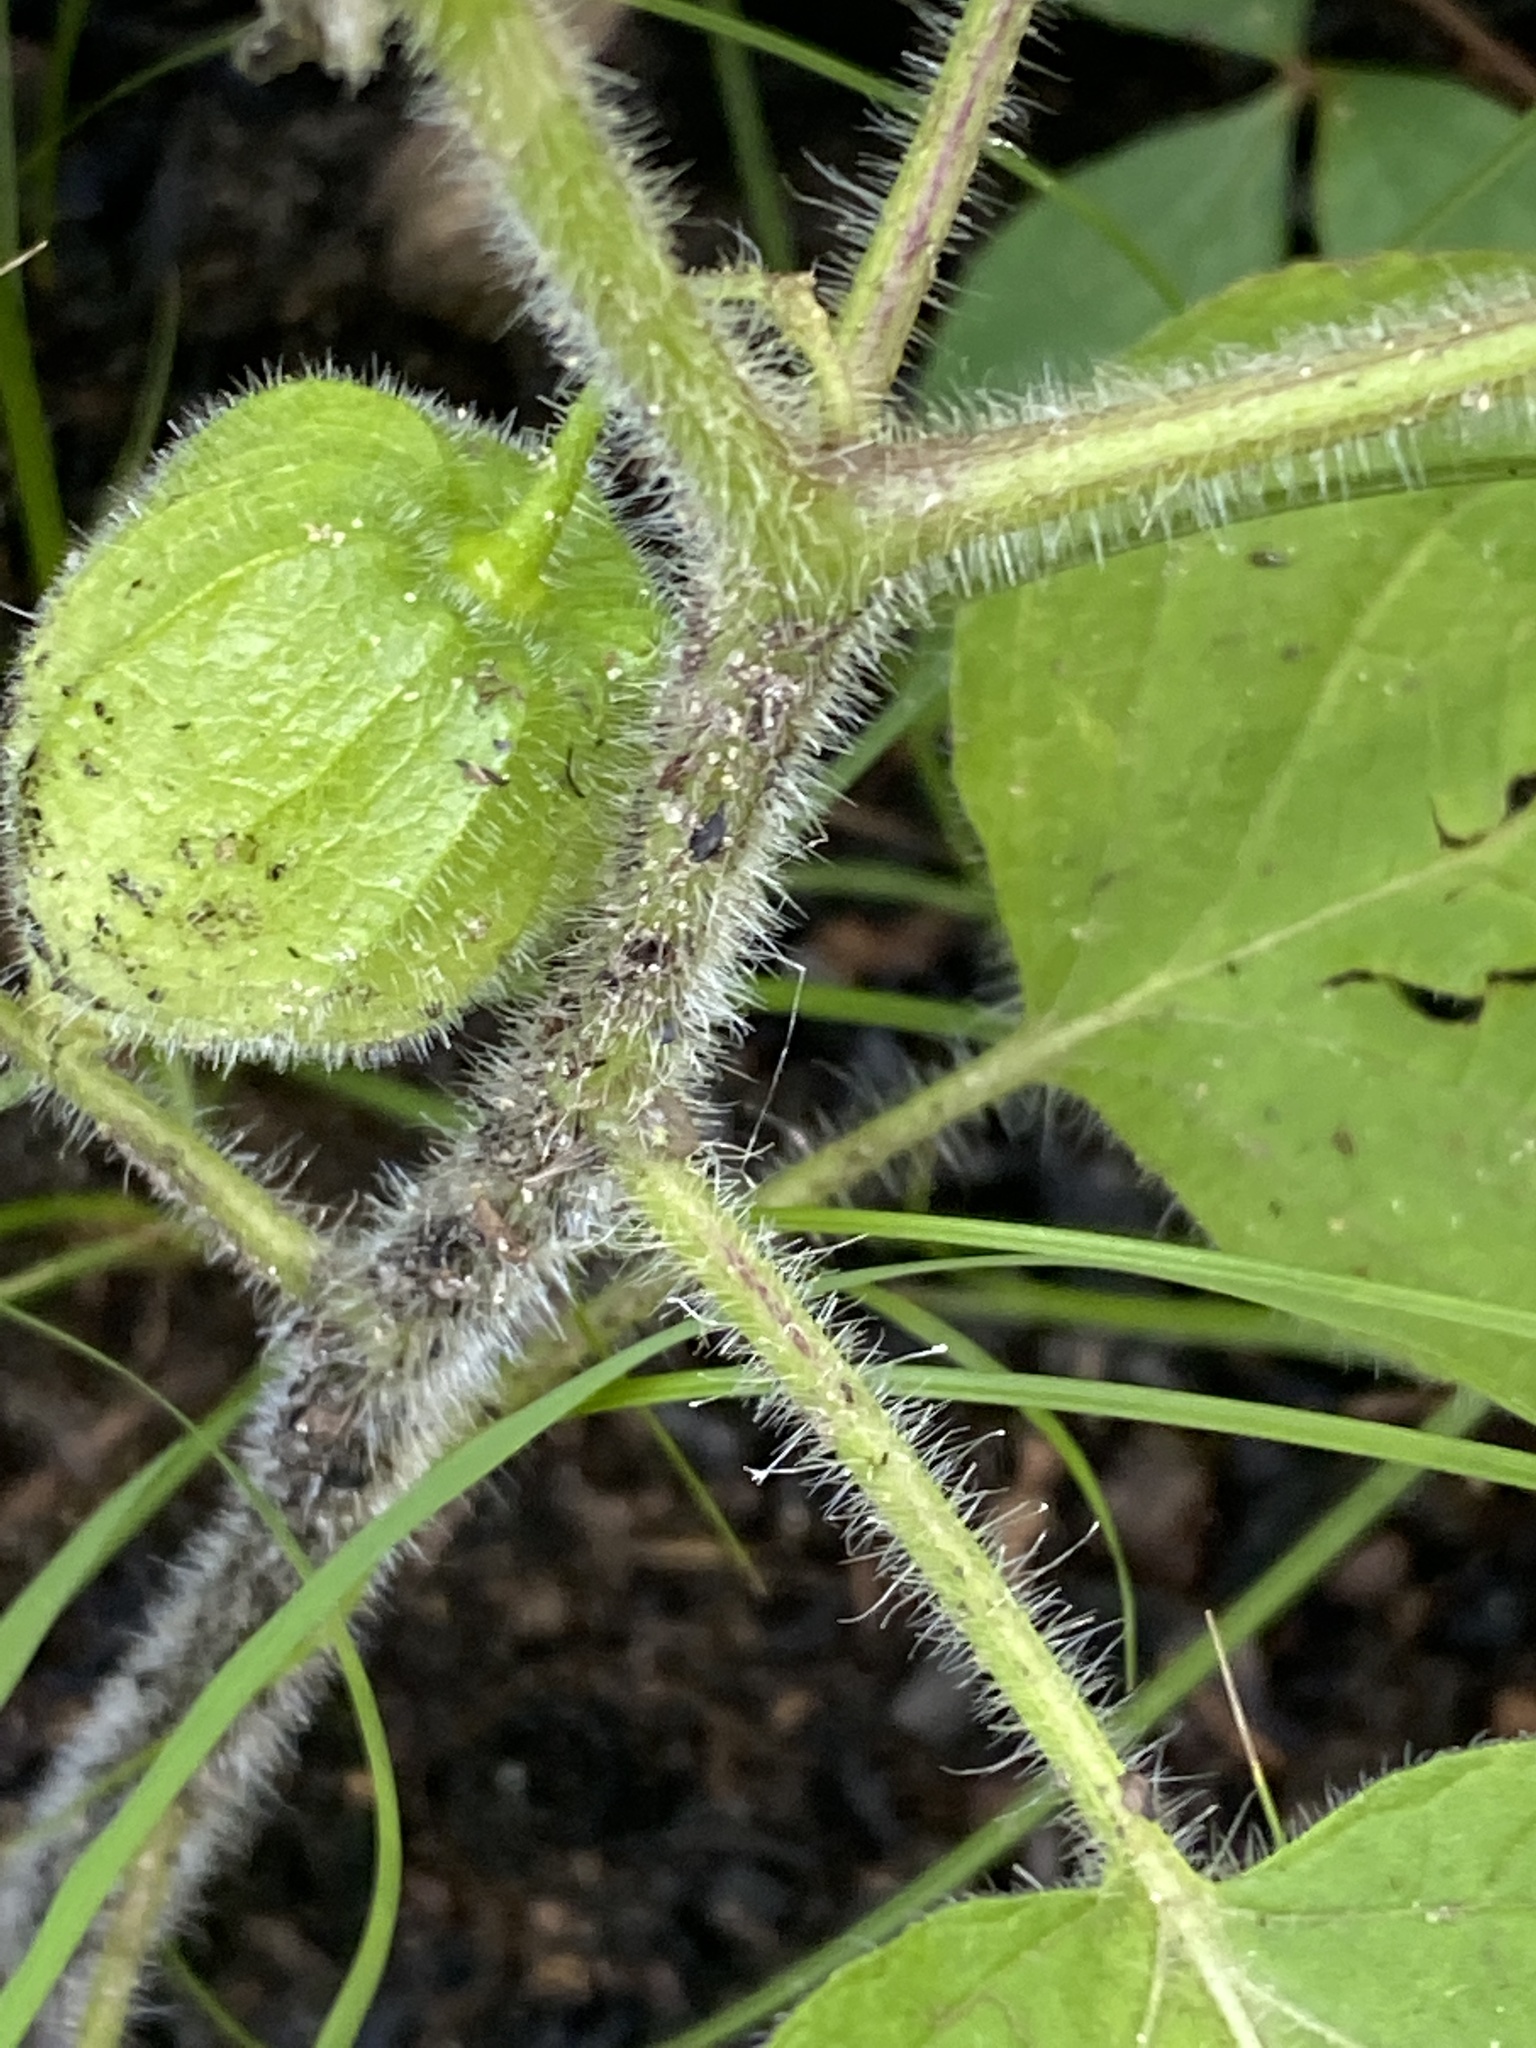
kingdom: Plantae
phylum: Tracheophyta
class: Magnoliopsida
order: Solanales
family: Solanaceae
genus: Physalis
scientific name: Physalis heterophylla
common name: Clammy ground-cherry
